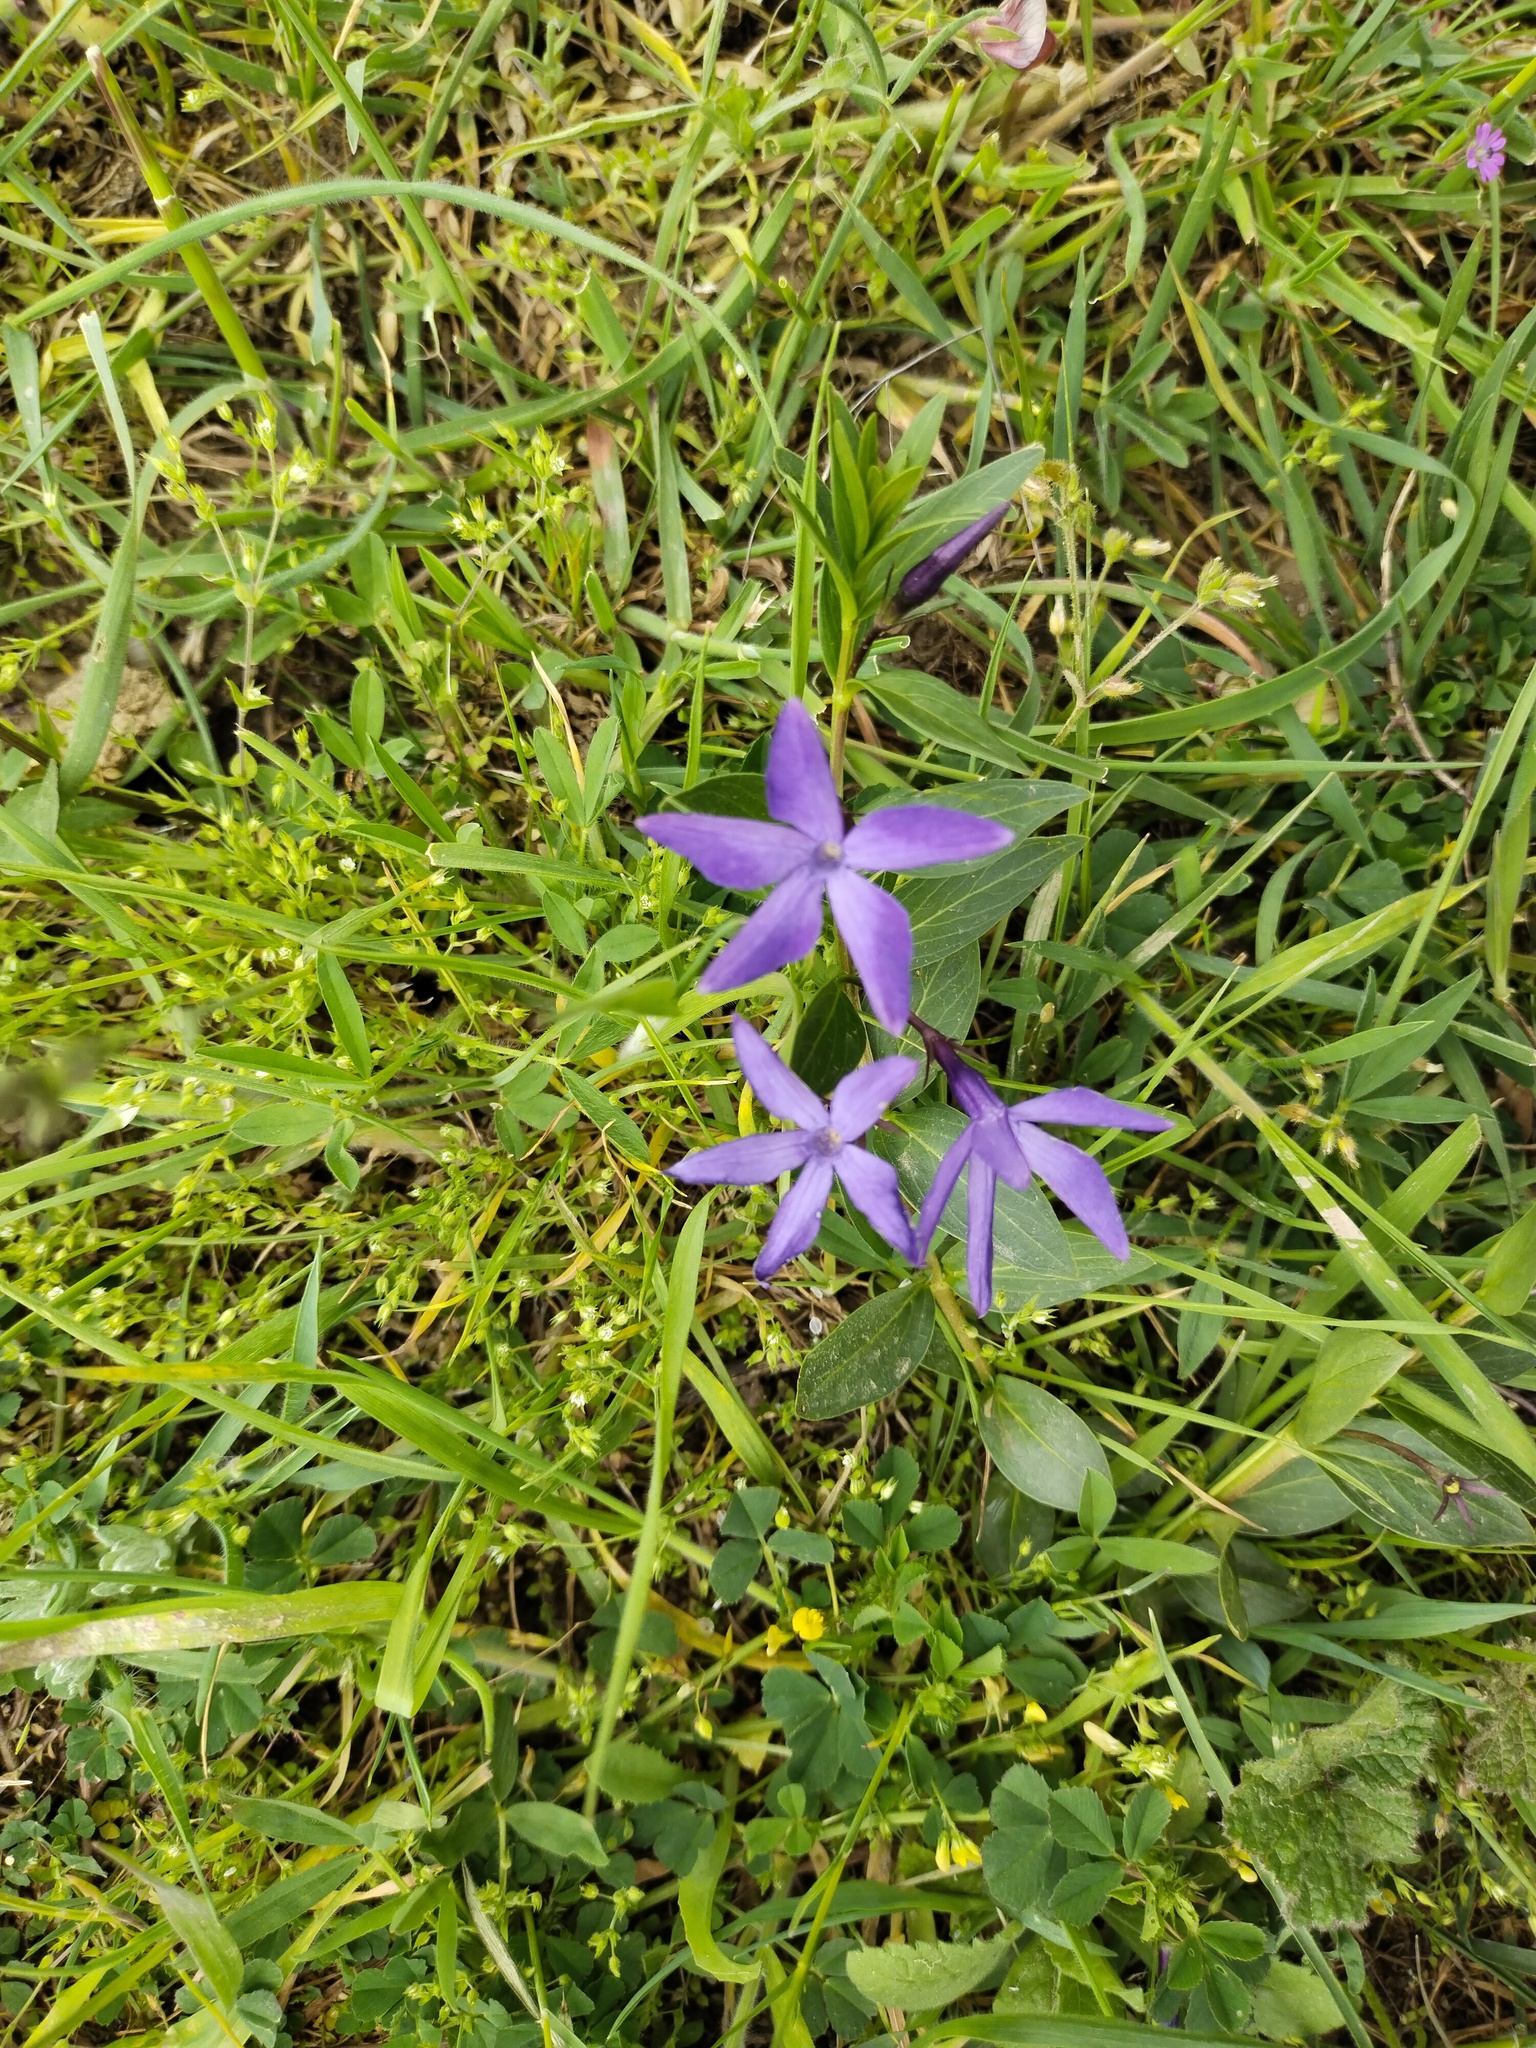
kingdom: Plantae
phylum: Tracheophyta
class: Magnoliopsida
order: Gentianales
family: Apocynaceae
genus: Vinca
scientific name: Vinca herbacea
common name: Herbaceous periwinkle
